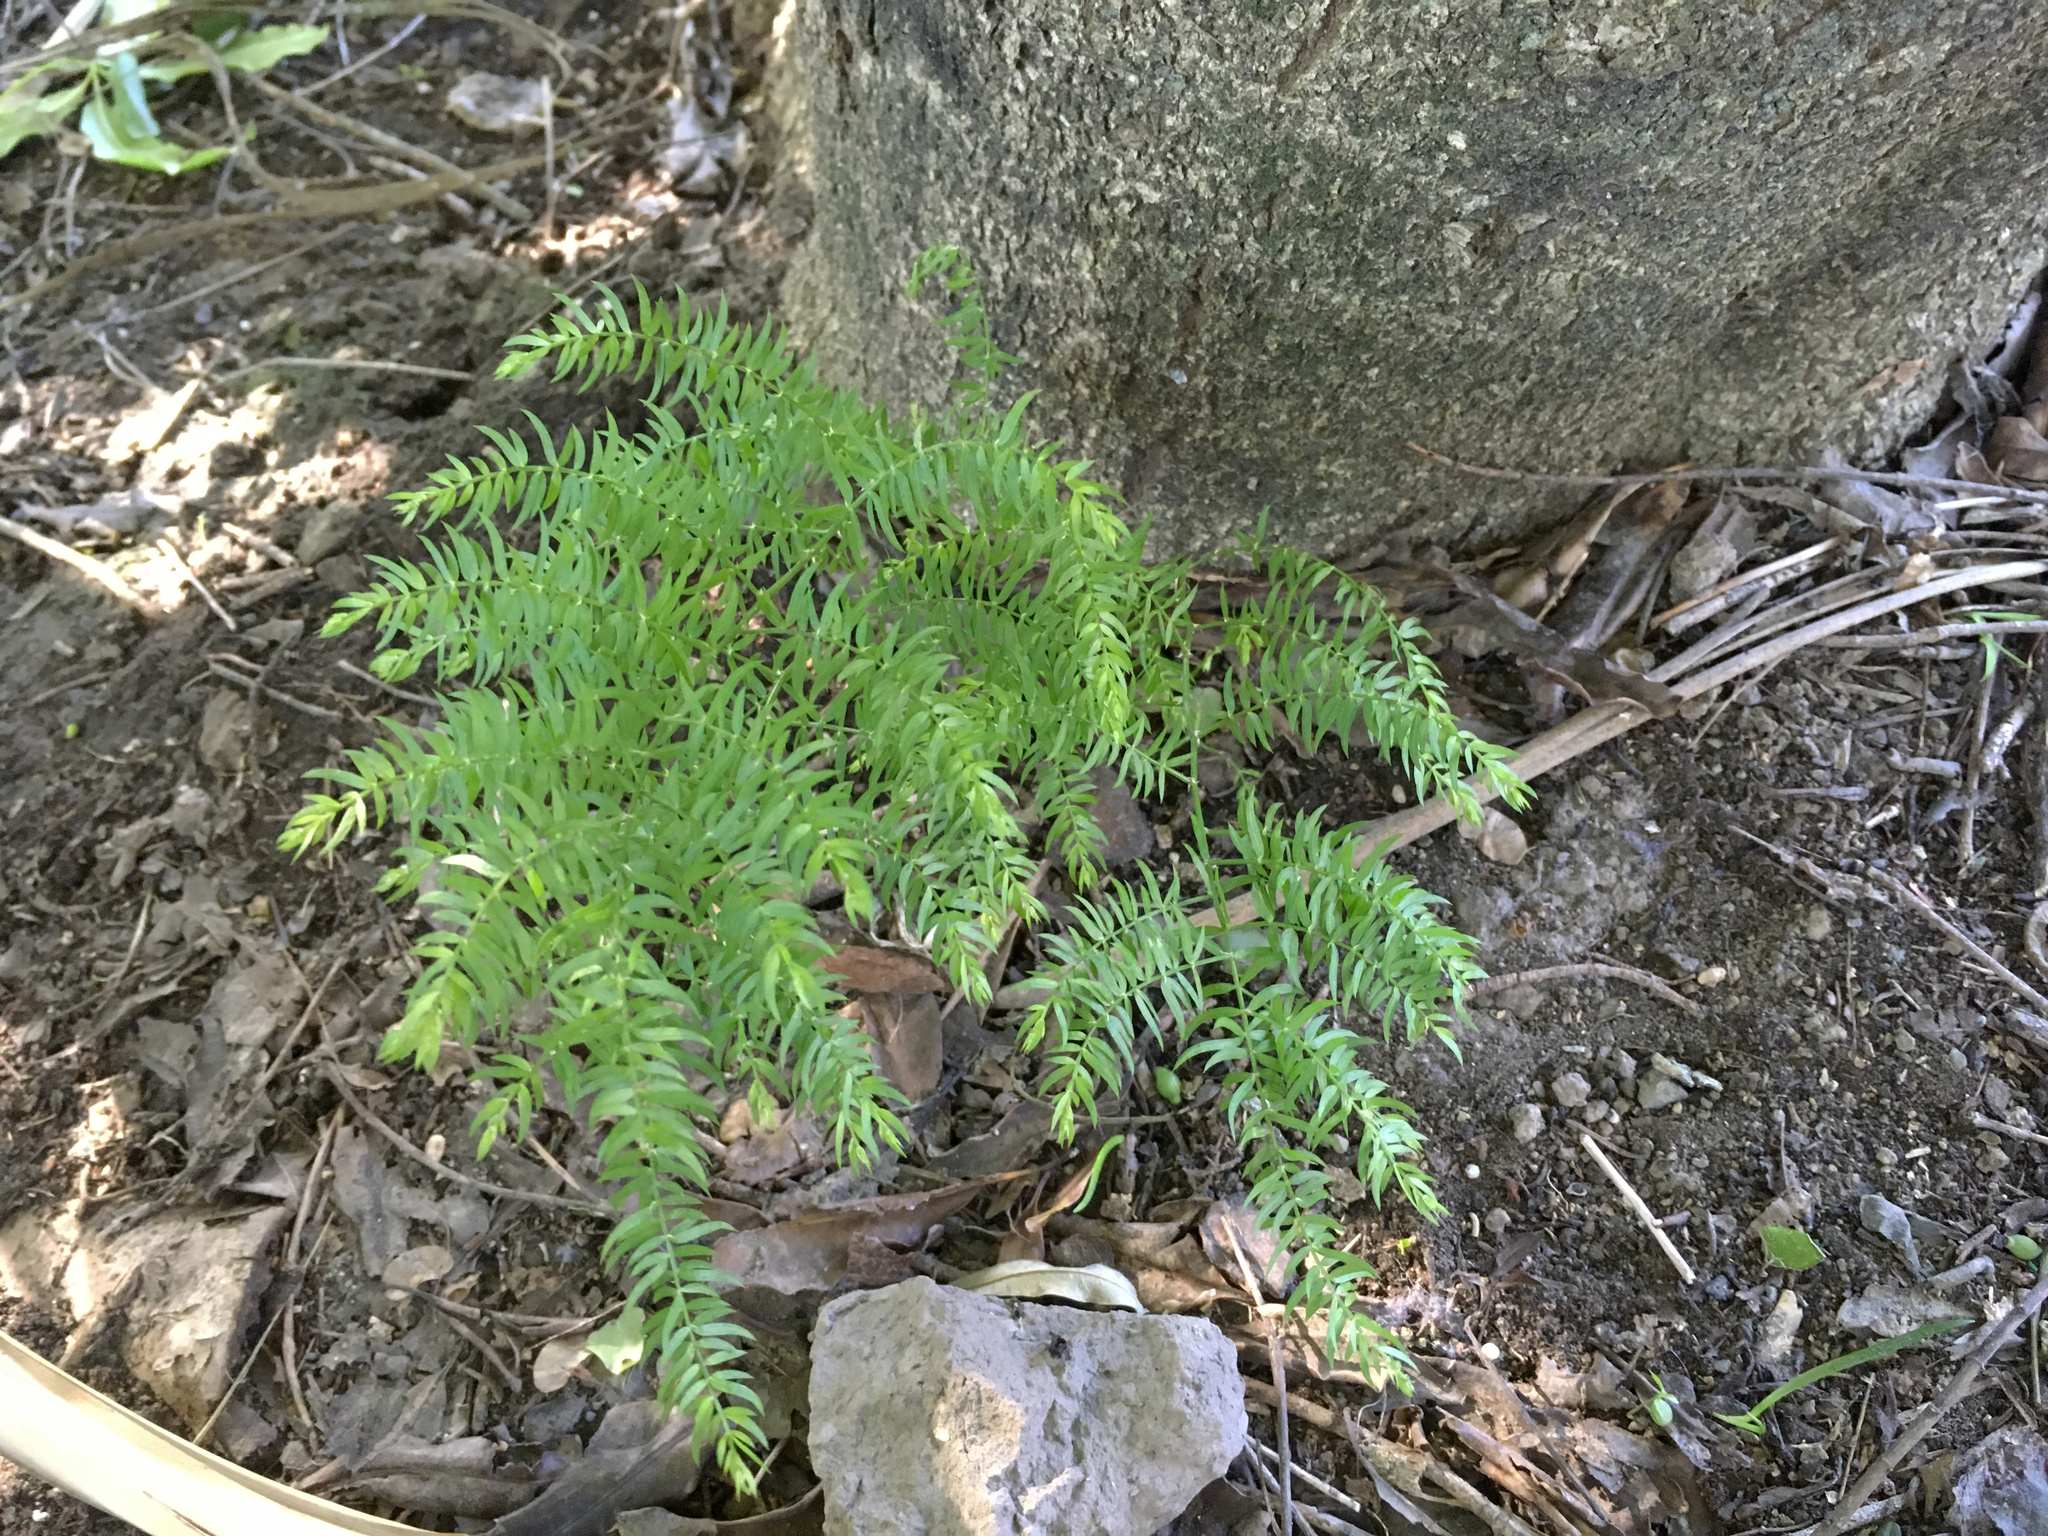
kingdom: Plantae
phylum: Tracheophyta
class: Liliopsida
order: Asparagales
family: Asparagaceae
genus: Asparagus
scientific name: Asparagus scandens
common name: Asparagus-fern
